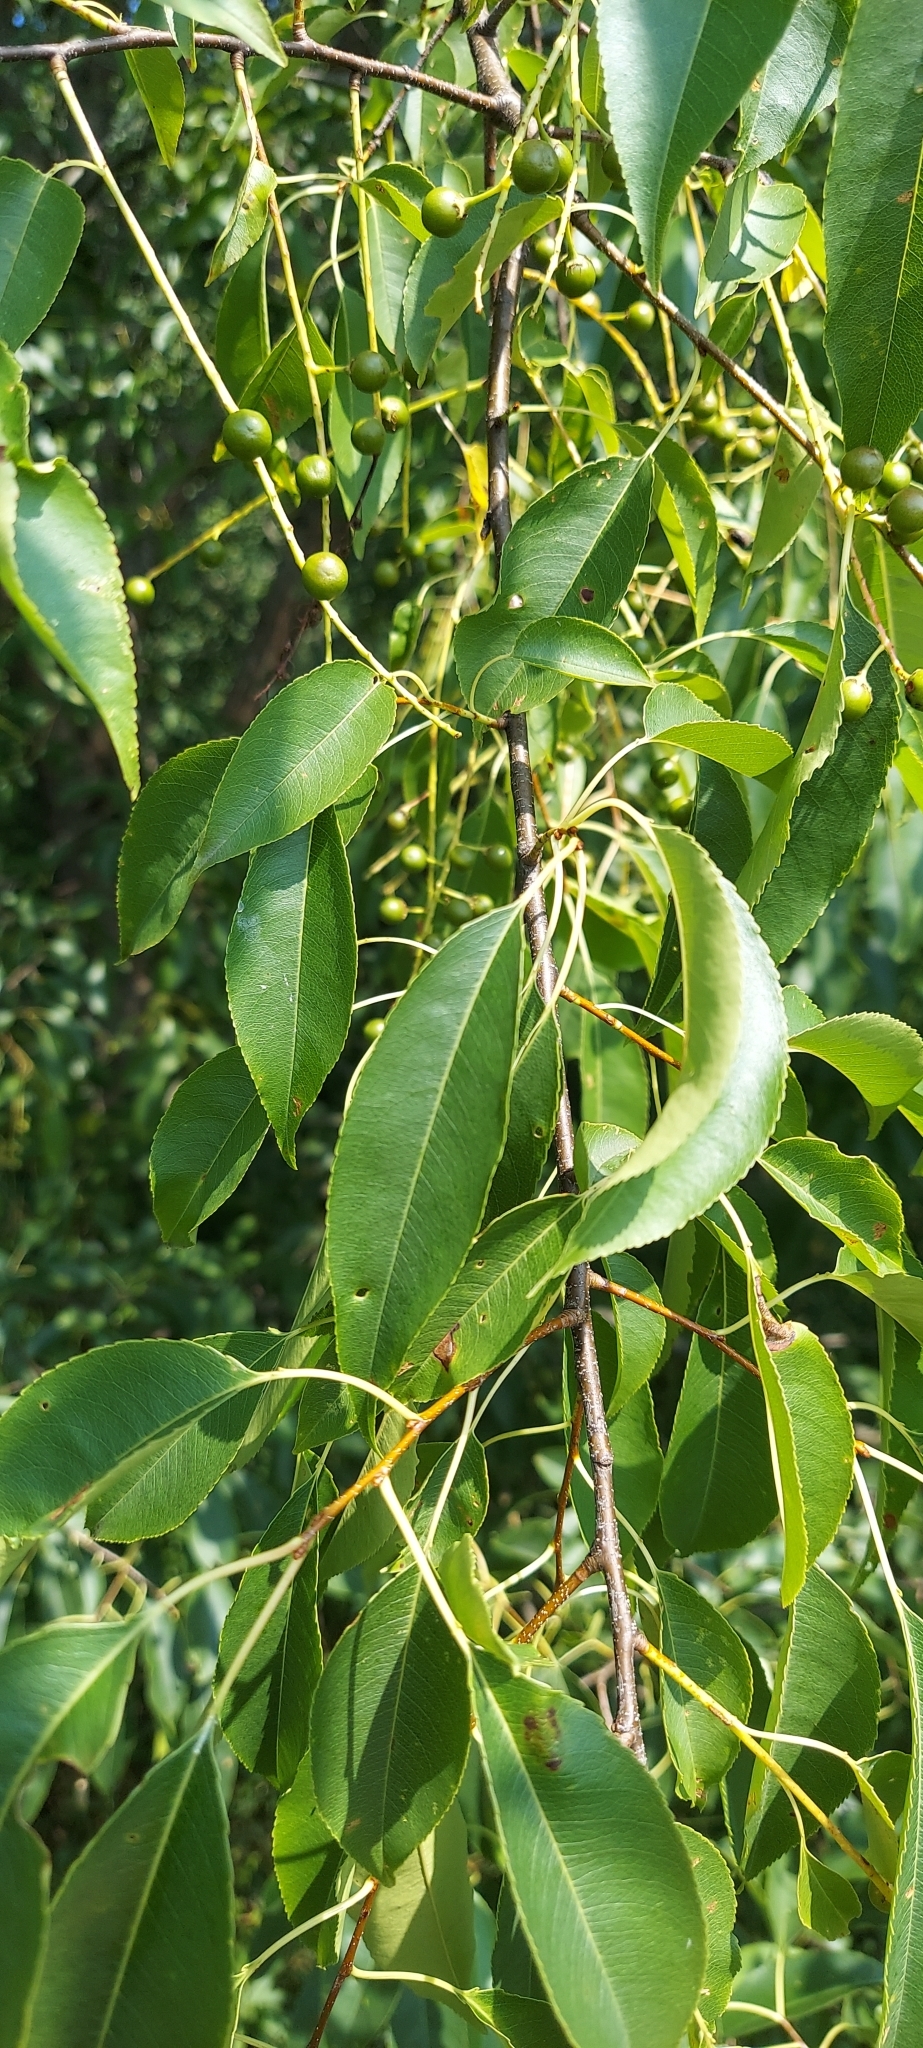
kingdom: Plantae
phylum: Tracheophyta
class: Magnoliopsida
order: Rosales
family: Rosaceae
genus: Prunus
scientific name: Prunus serotina
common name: Black cherry
